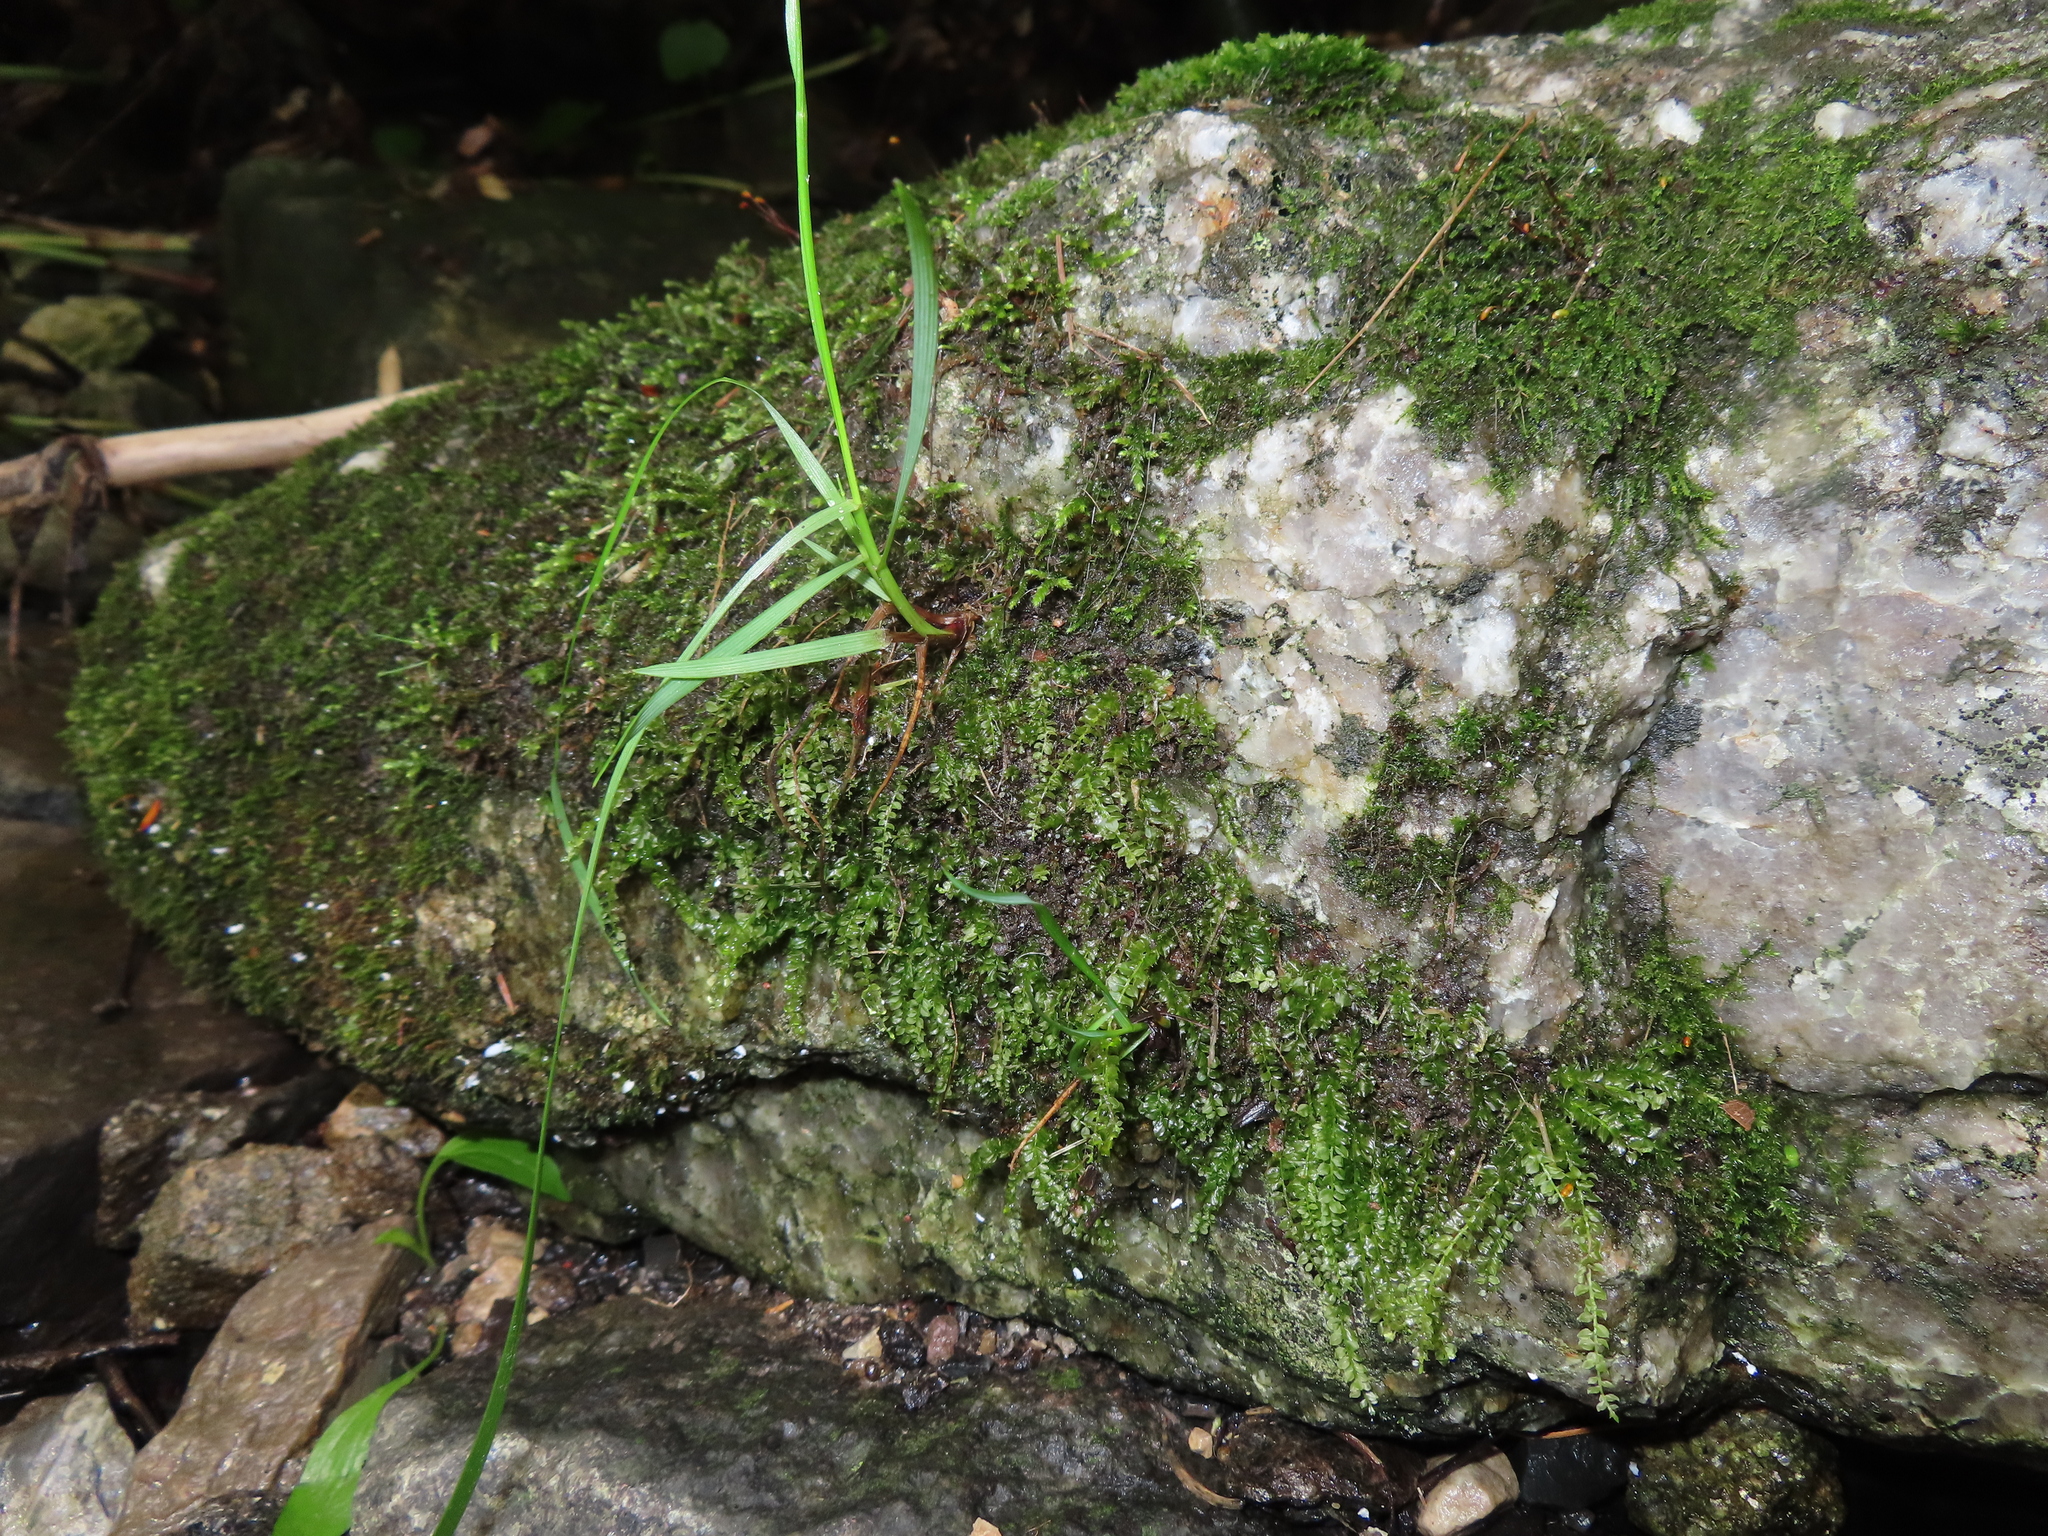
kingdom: Plantae
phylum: Bryophyta
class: Bryopsida
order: Bryales
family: Mniaceae
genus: Plagiomnium
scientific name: Plagiomnium cuspidatum
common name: Woodsy leafy moss
